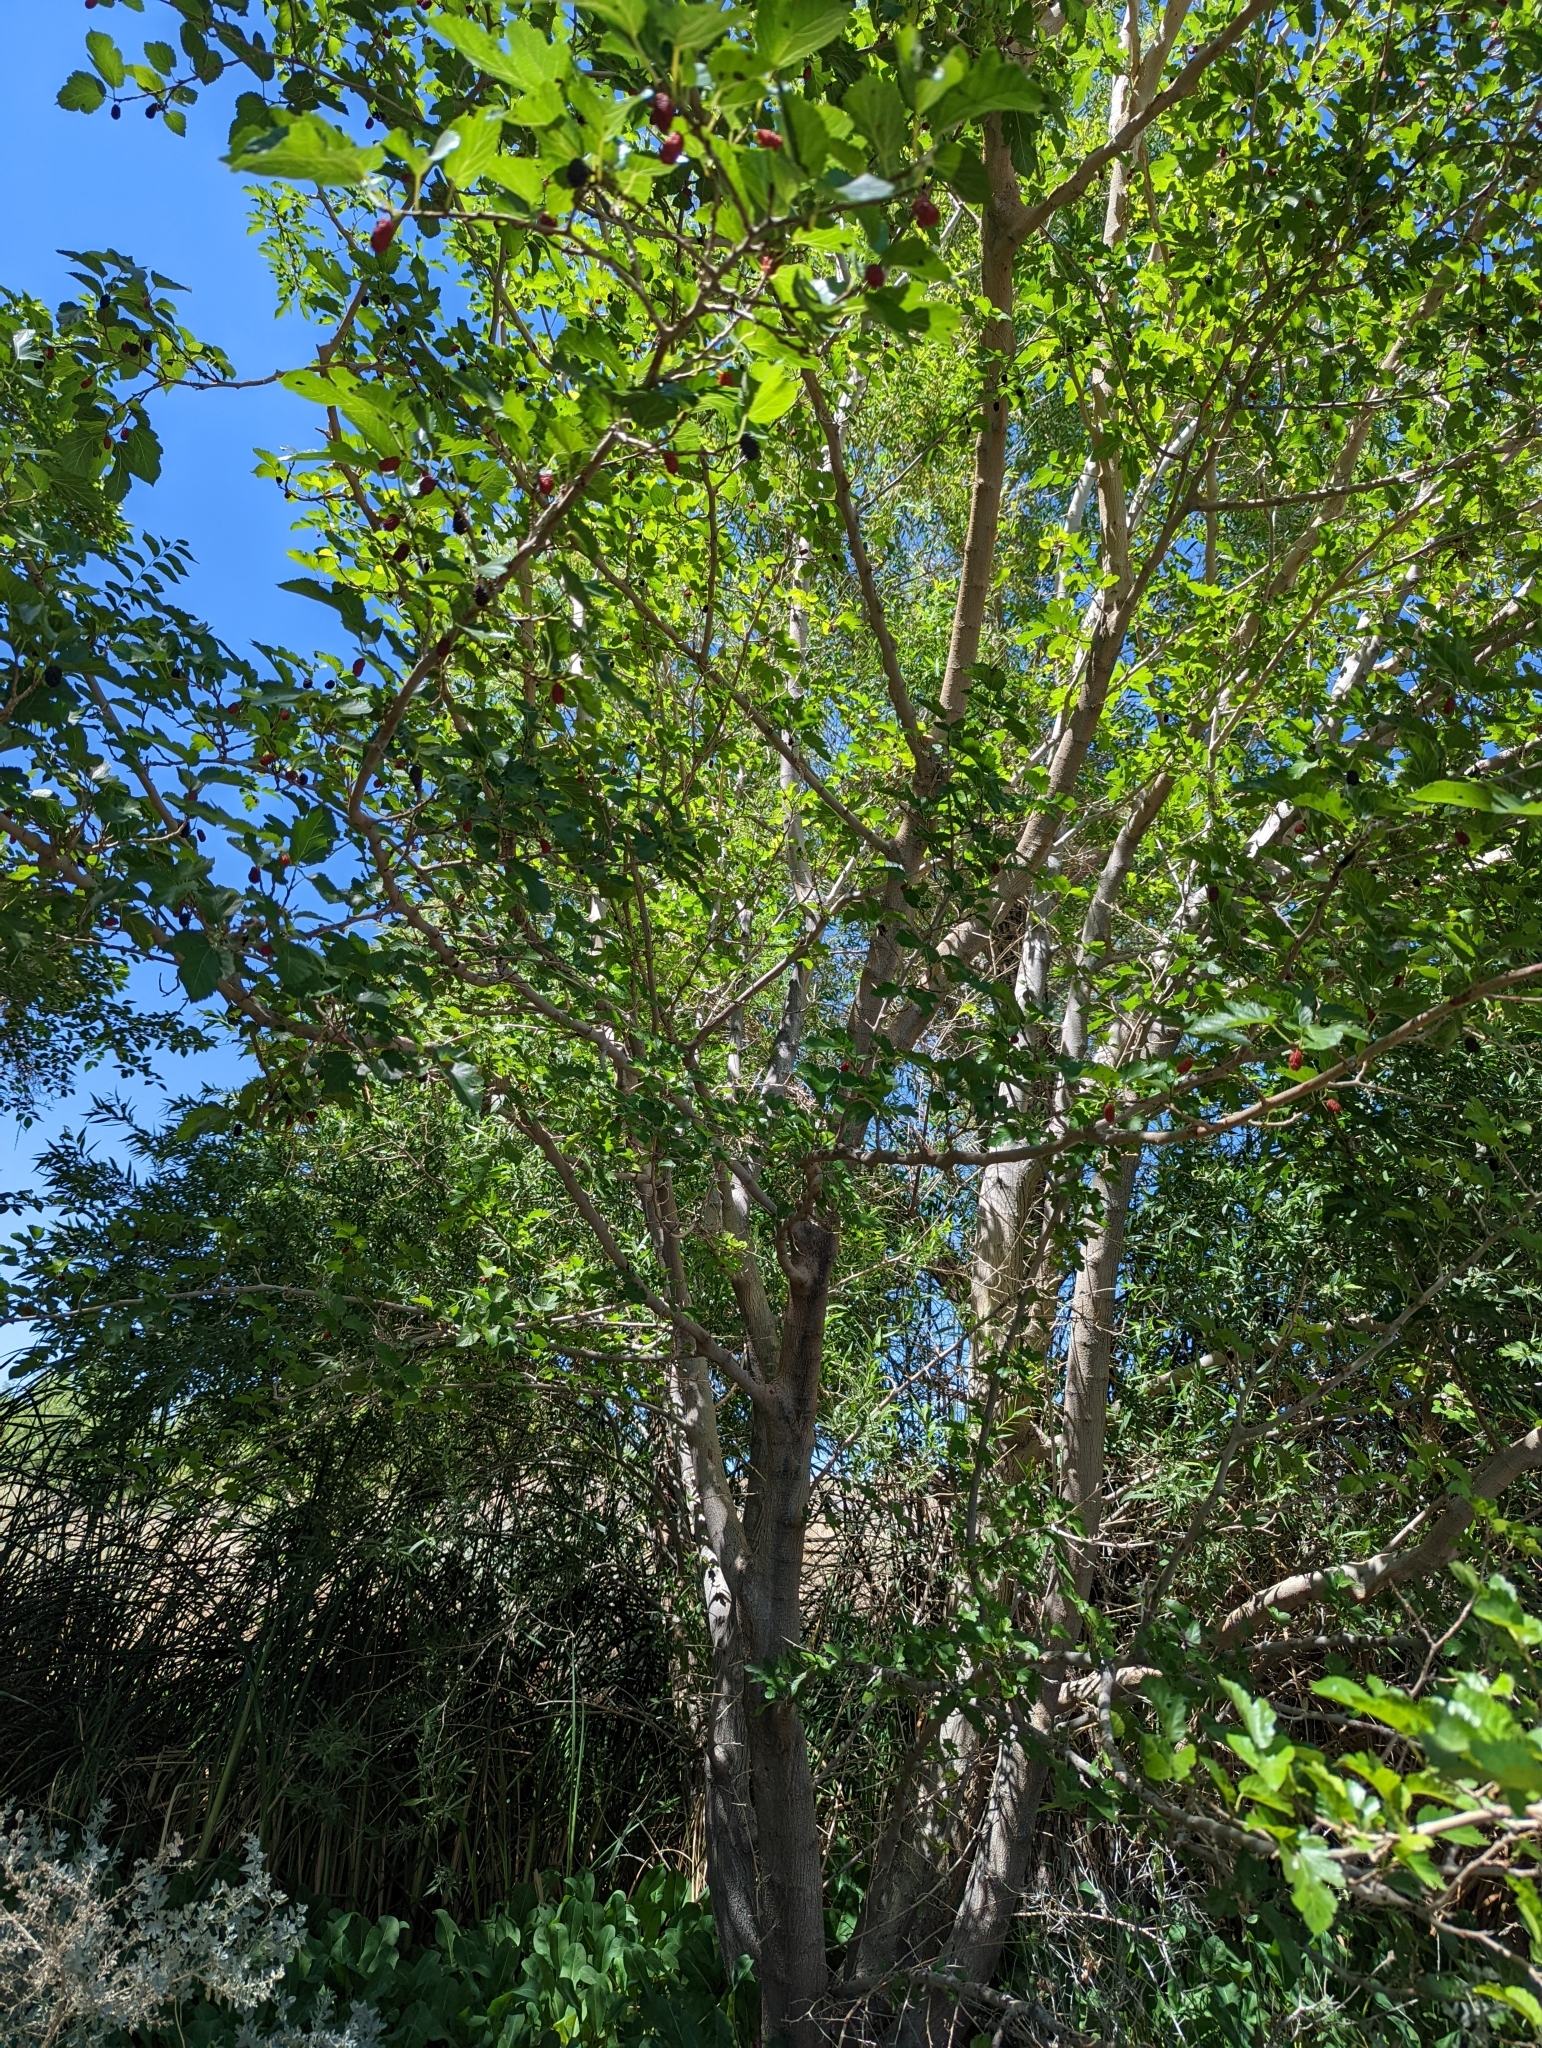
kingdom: Plantae
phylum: Tracheophyta
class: Magnoliopsida
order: Rosales
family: Moraceae
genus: Morus
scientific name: Morus alba
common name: White mulberry
